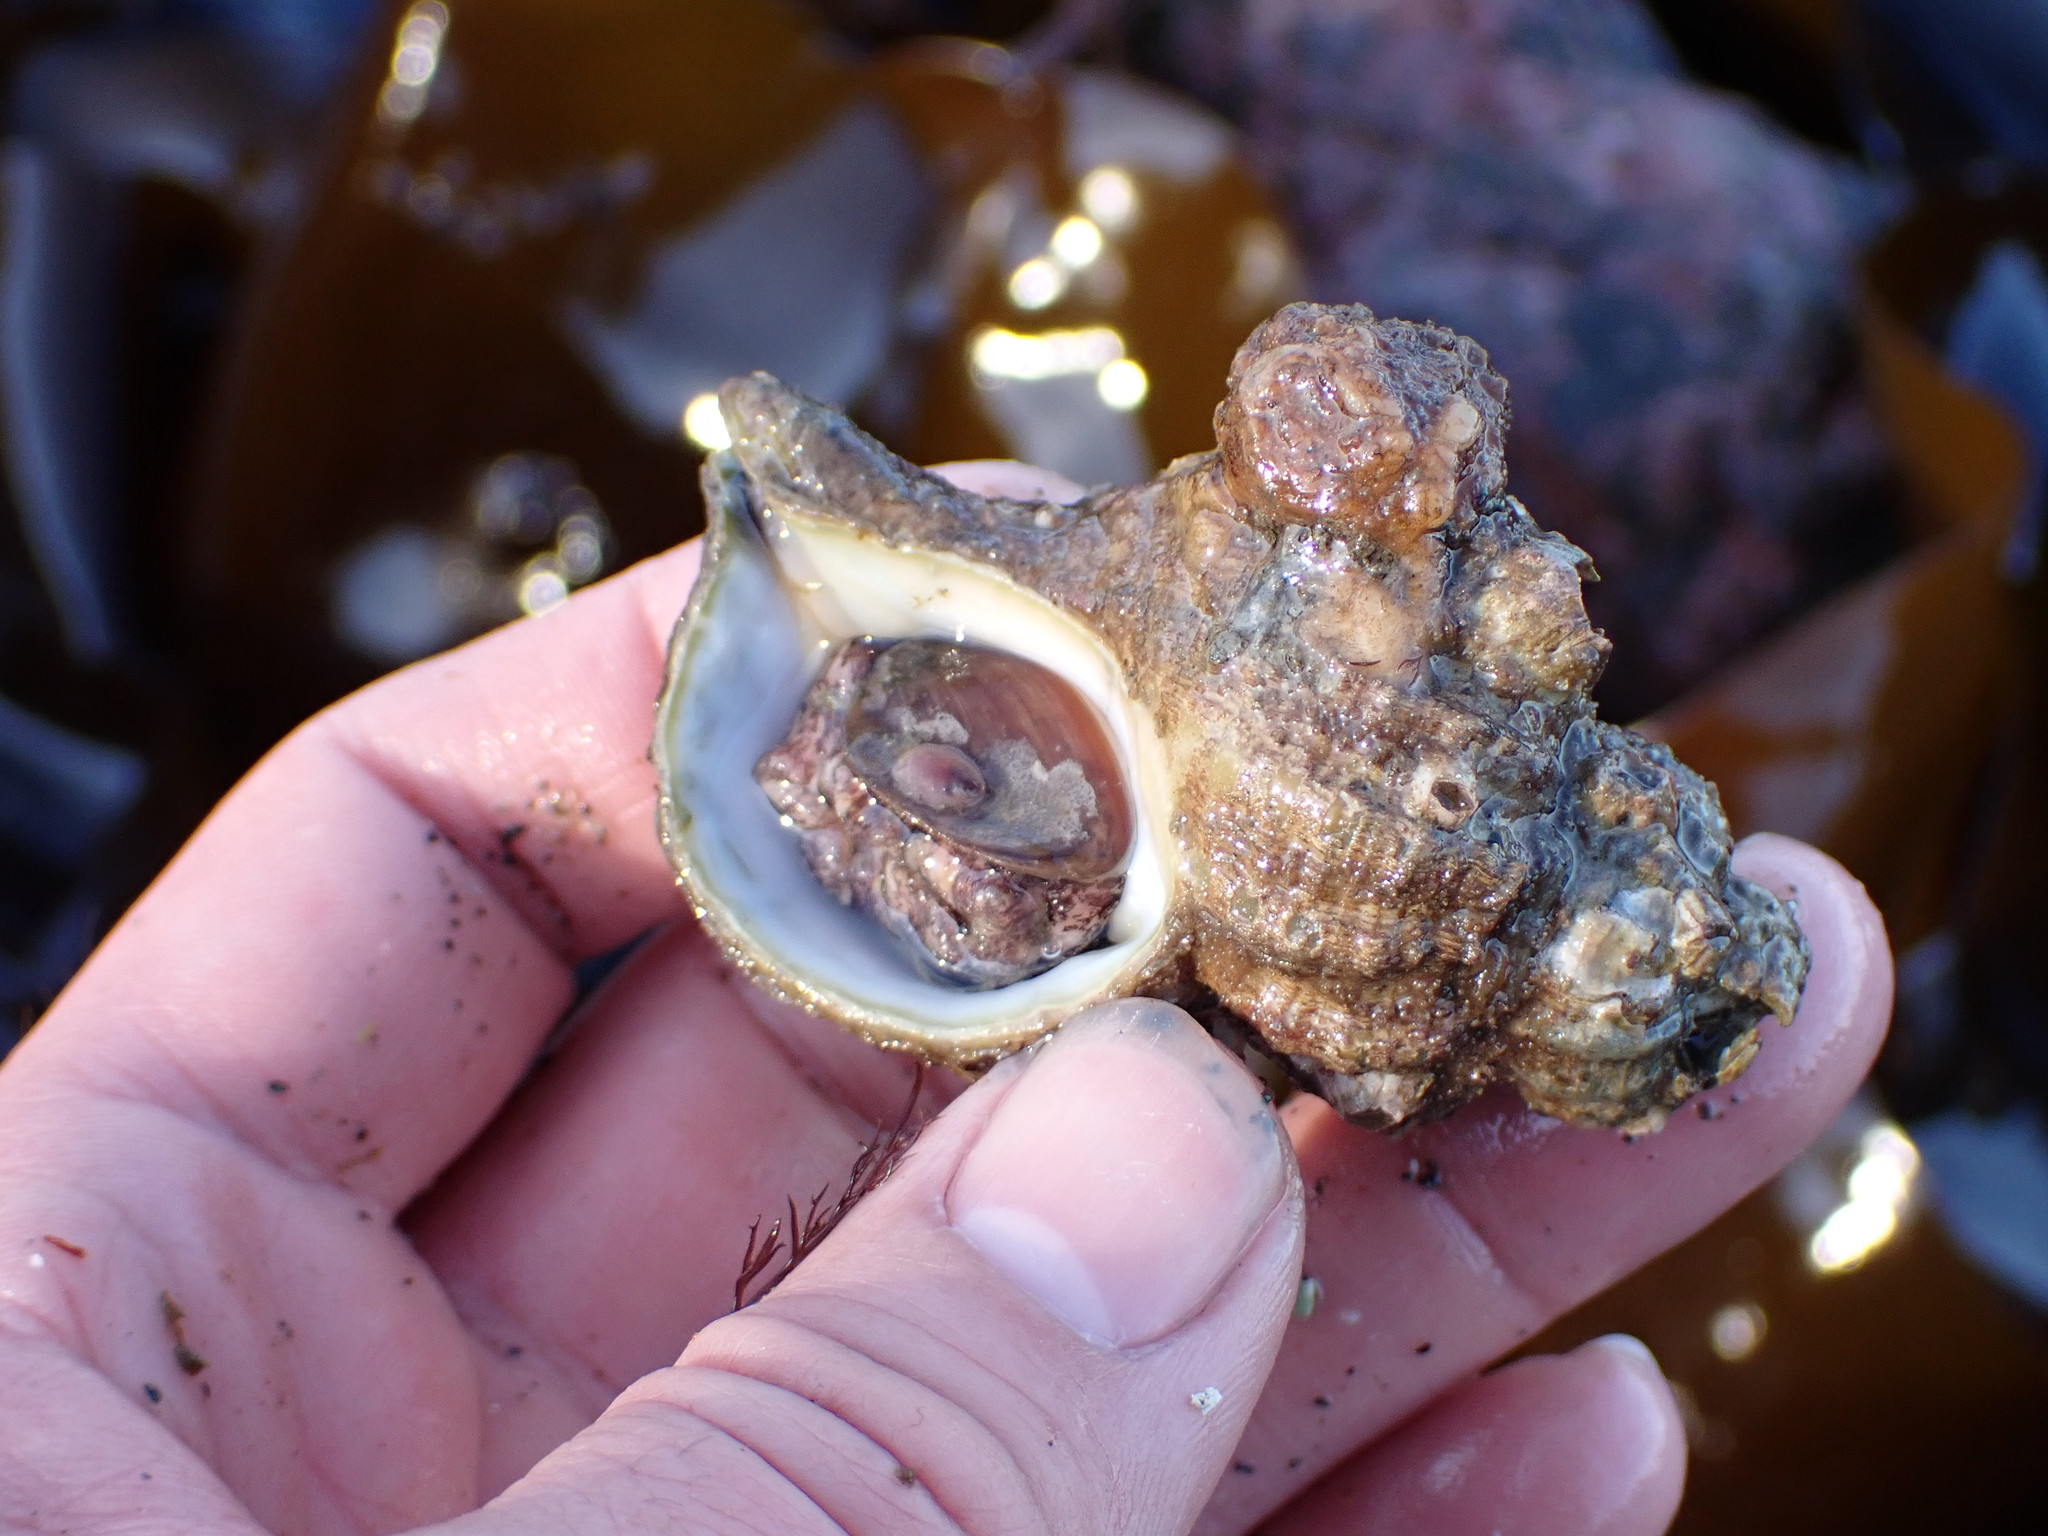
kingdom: Animalia
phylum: Mollusca
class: Gastropoda
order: Littorinimorpha
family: Cymatiidae
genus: Fusitriton
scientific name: Fusitriton oregonensis
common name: Oregon hairy triton
